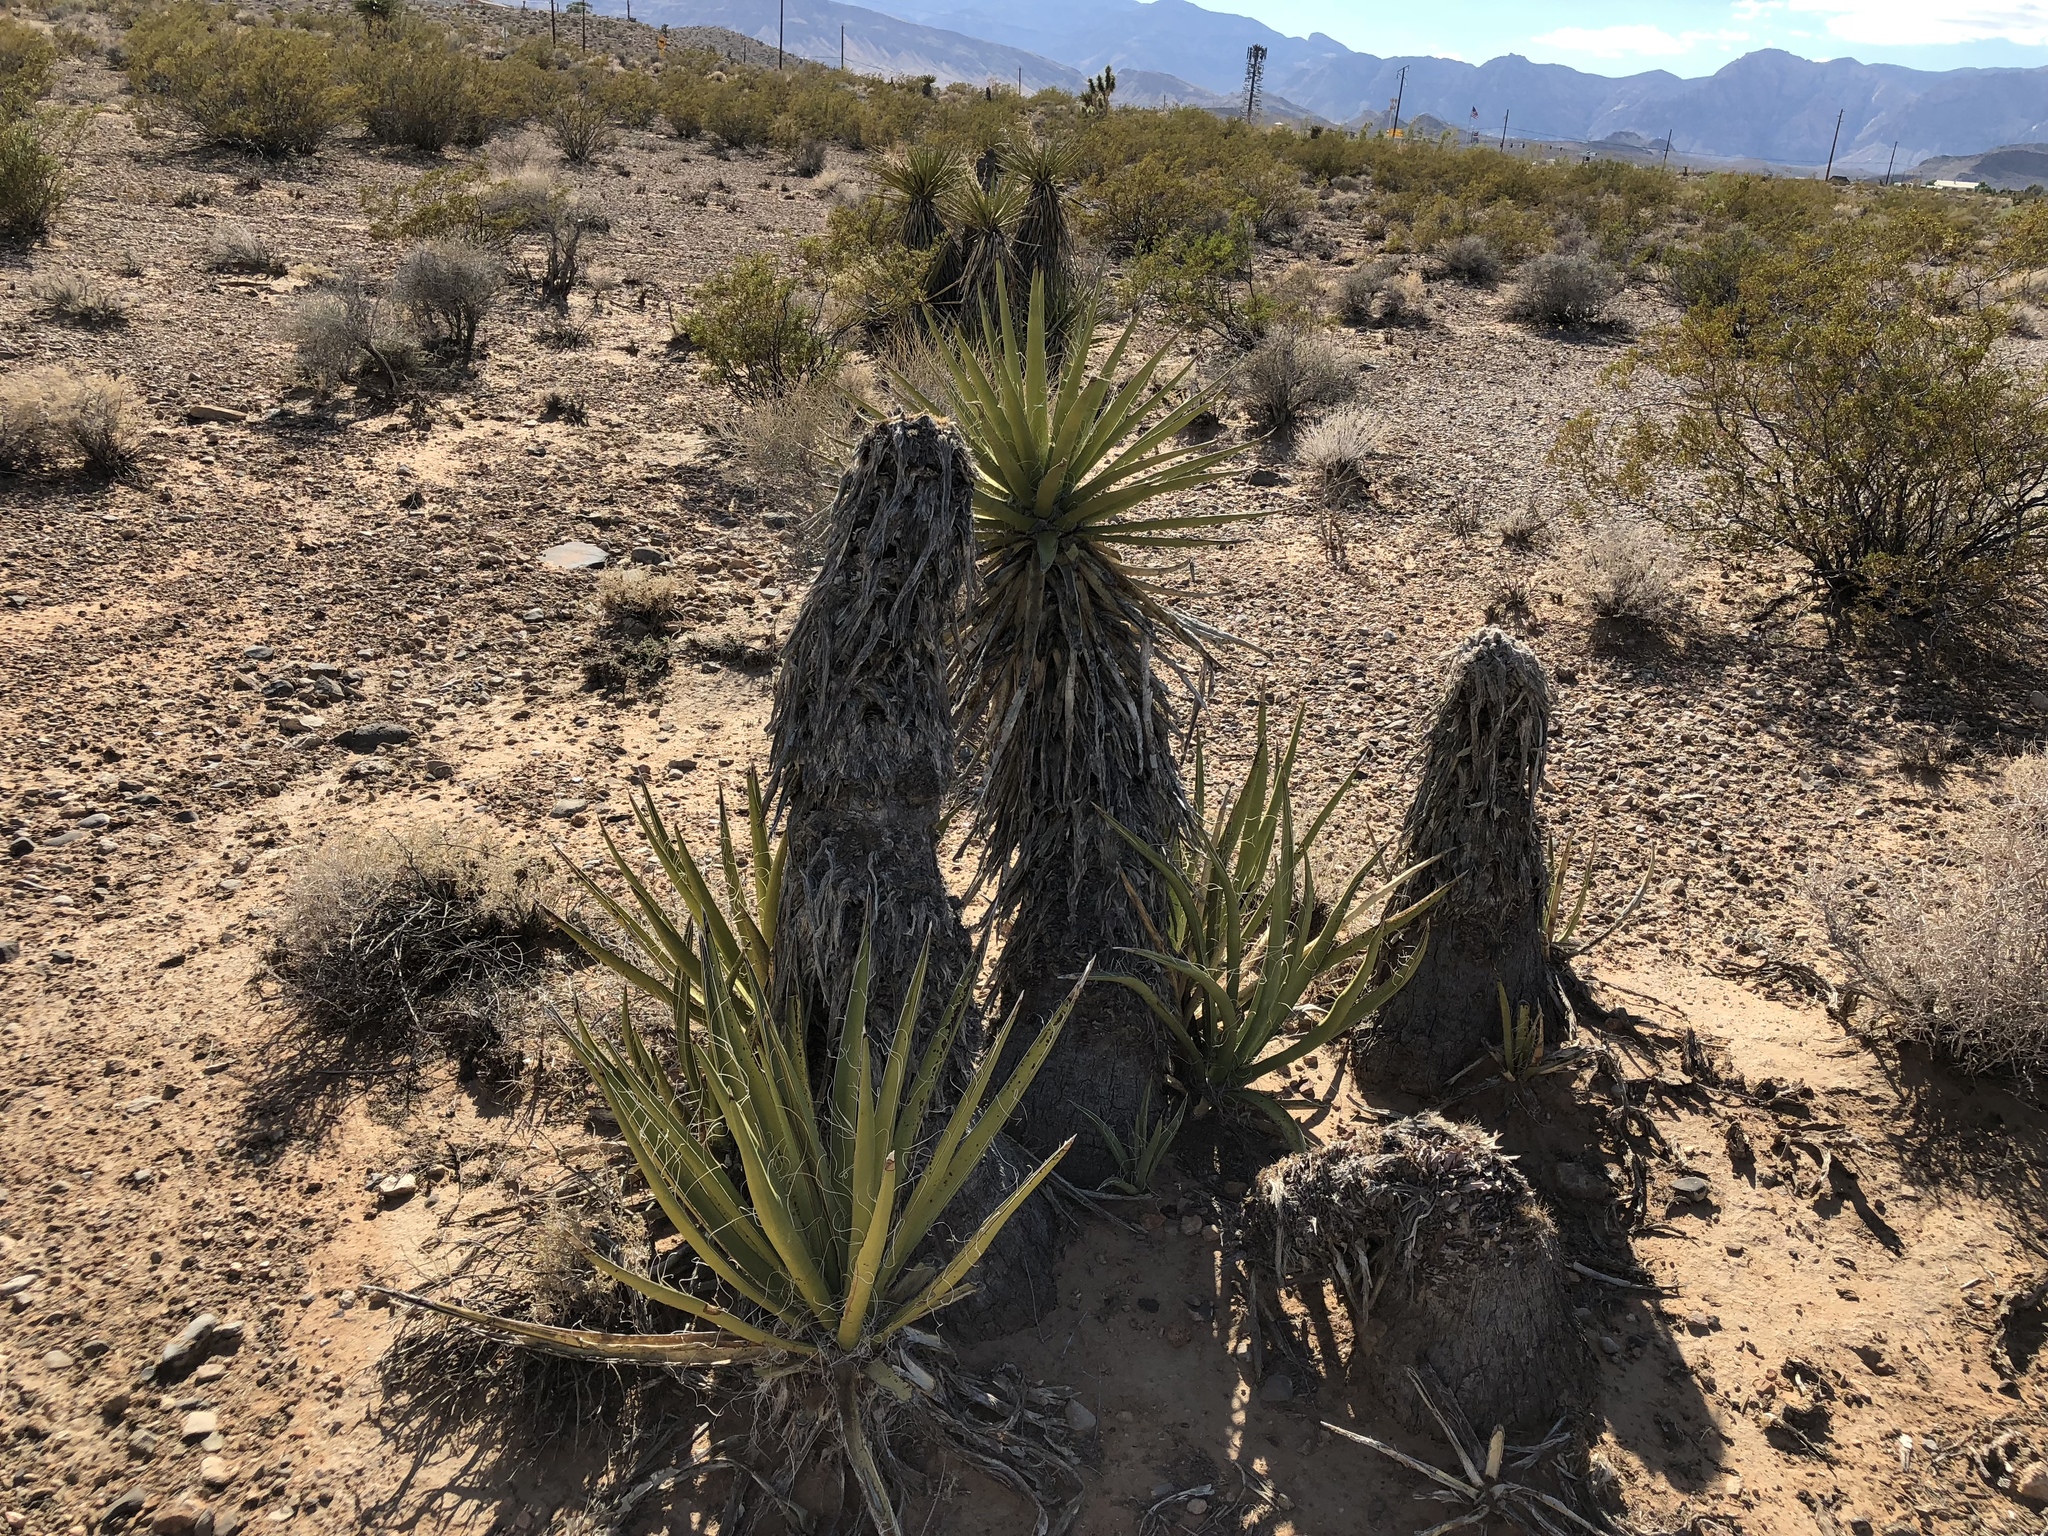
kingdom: Plantae
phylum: Tracheophyta
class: Liliopsida
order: Asparagales
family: Asparagaceae
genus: Yucca
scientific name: Yucca schidigera
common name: Mojave yucca
